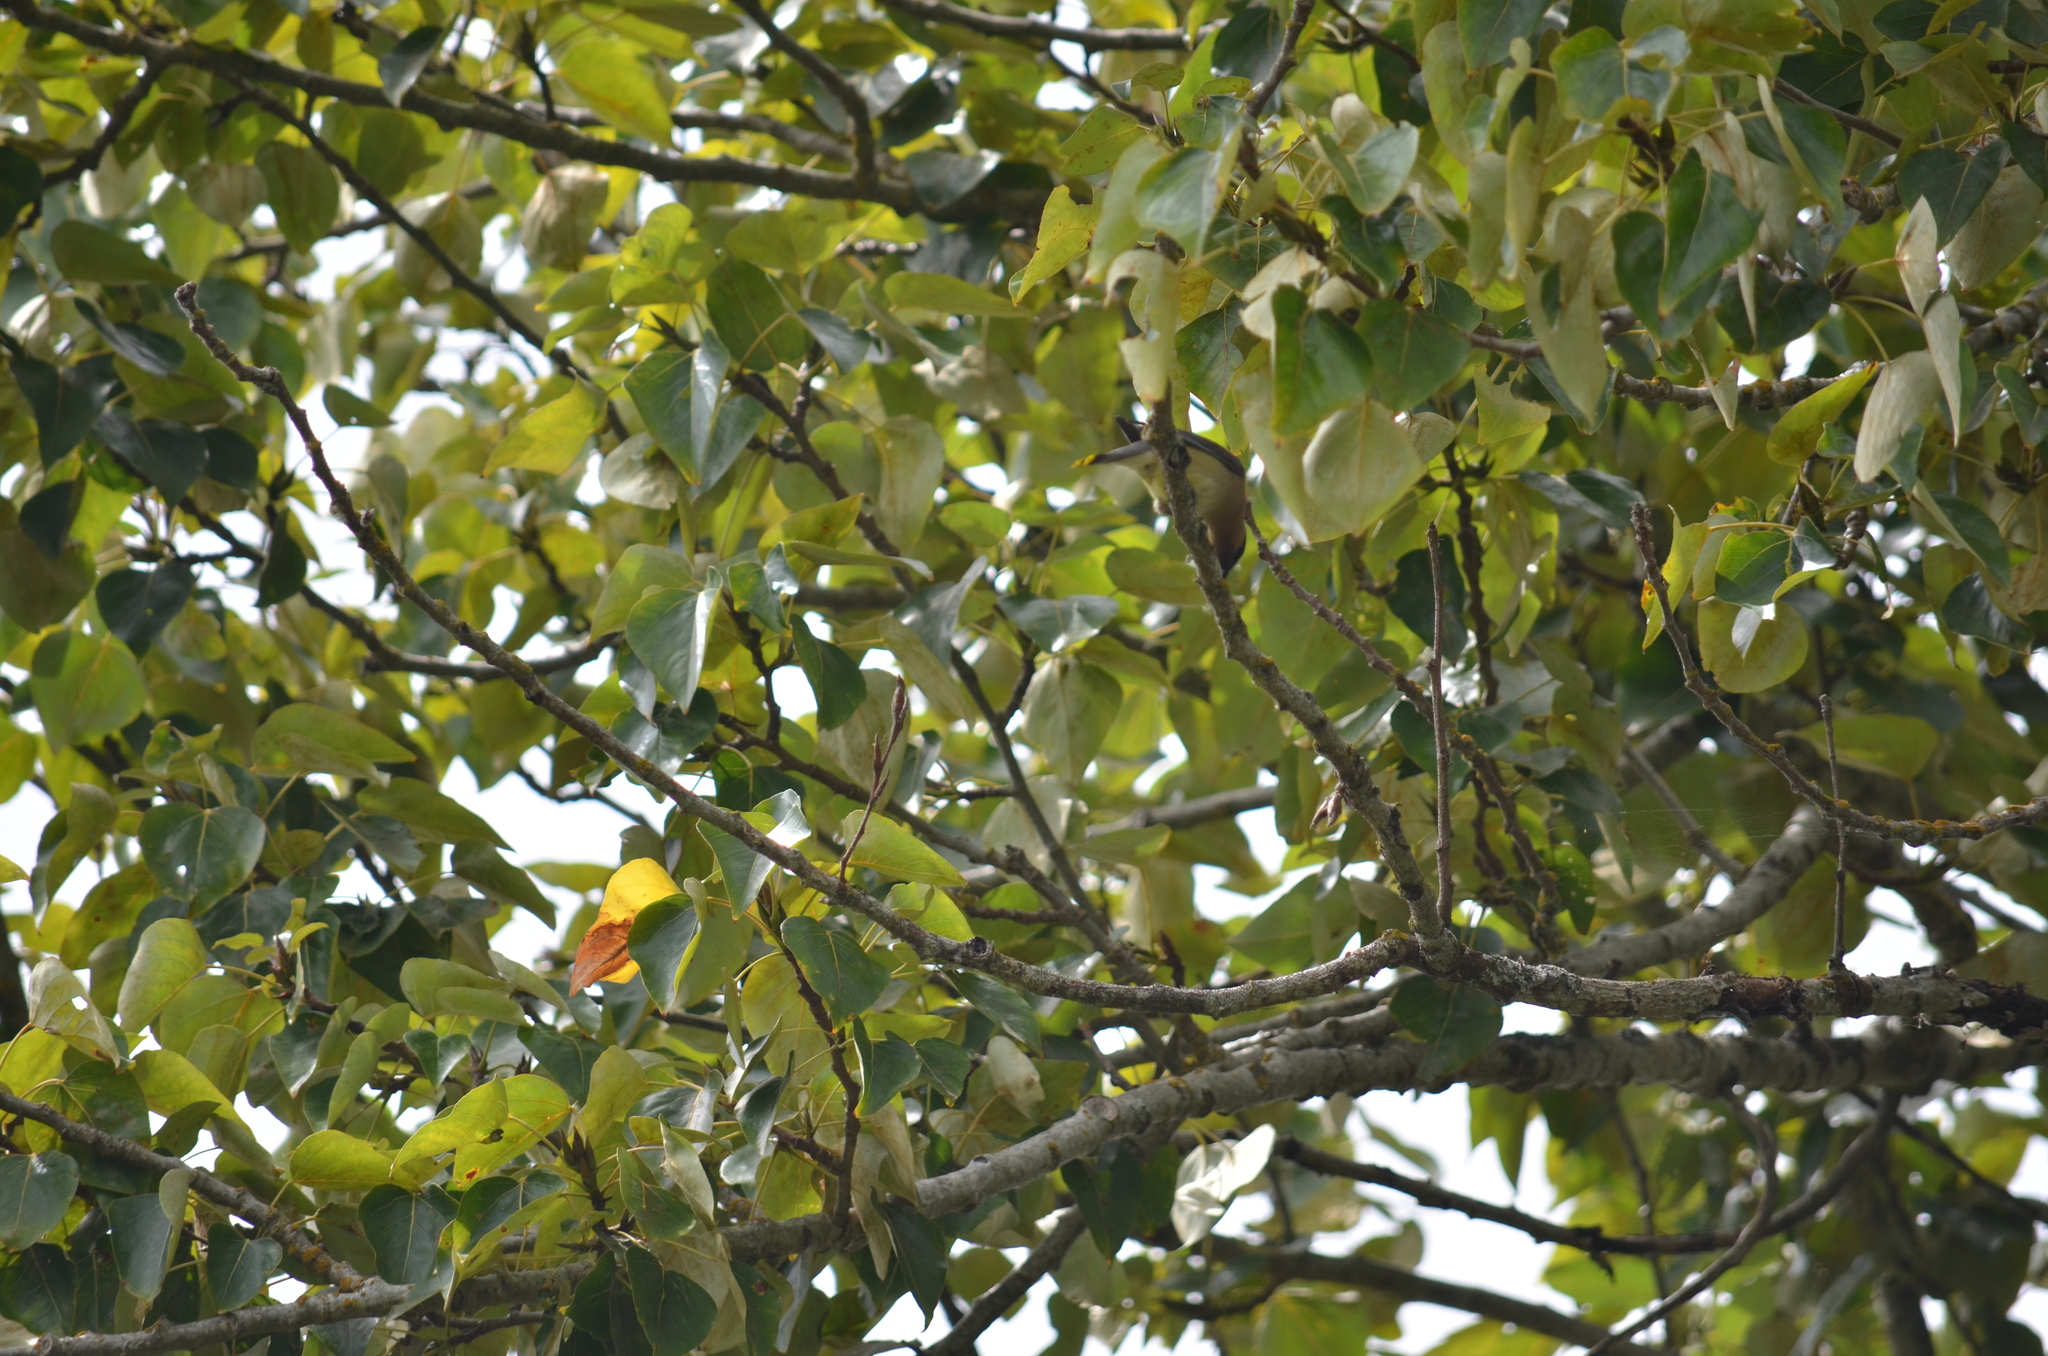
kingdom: Animalia
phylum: Chordata
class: Aves
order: Passeriformes
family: Bombycillidae
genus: Bombycilla
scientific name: Bombycilla cedrorum
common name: Cedar waxwing
